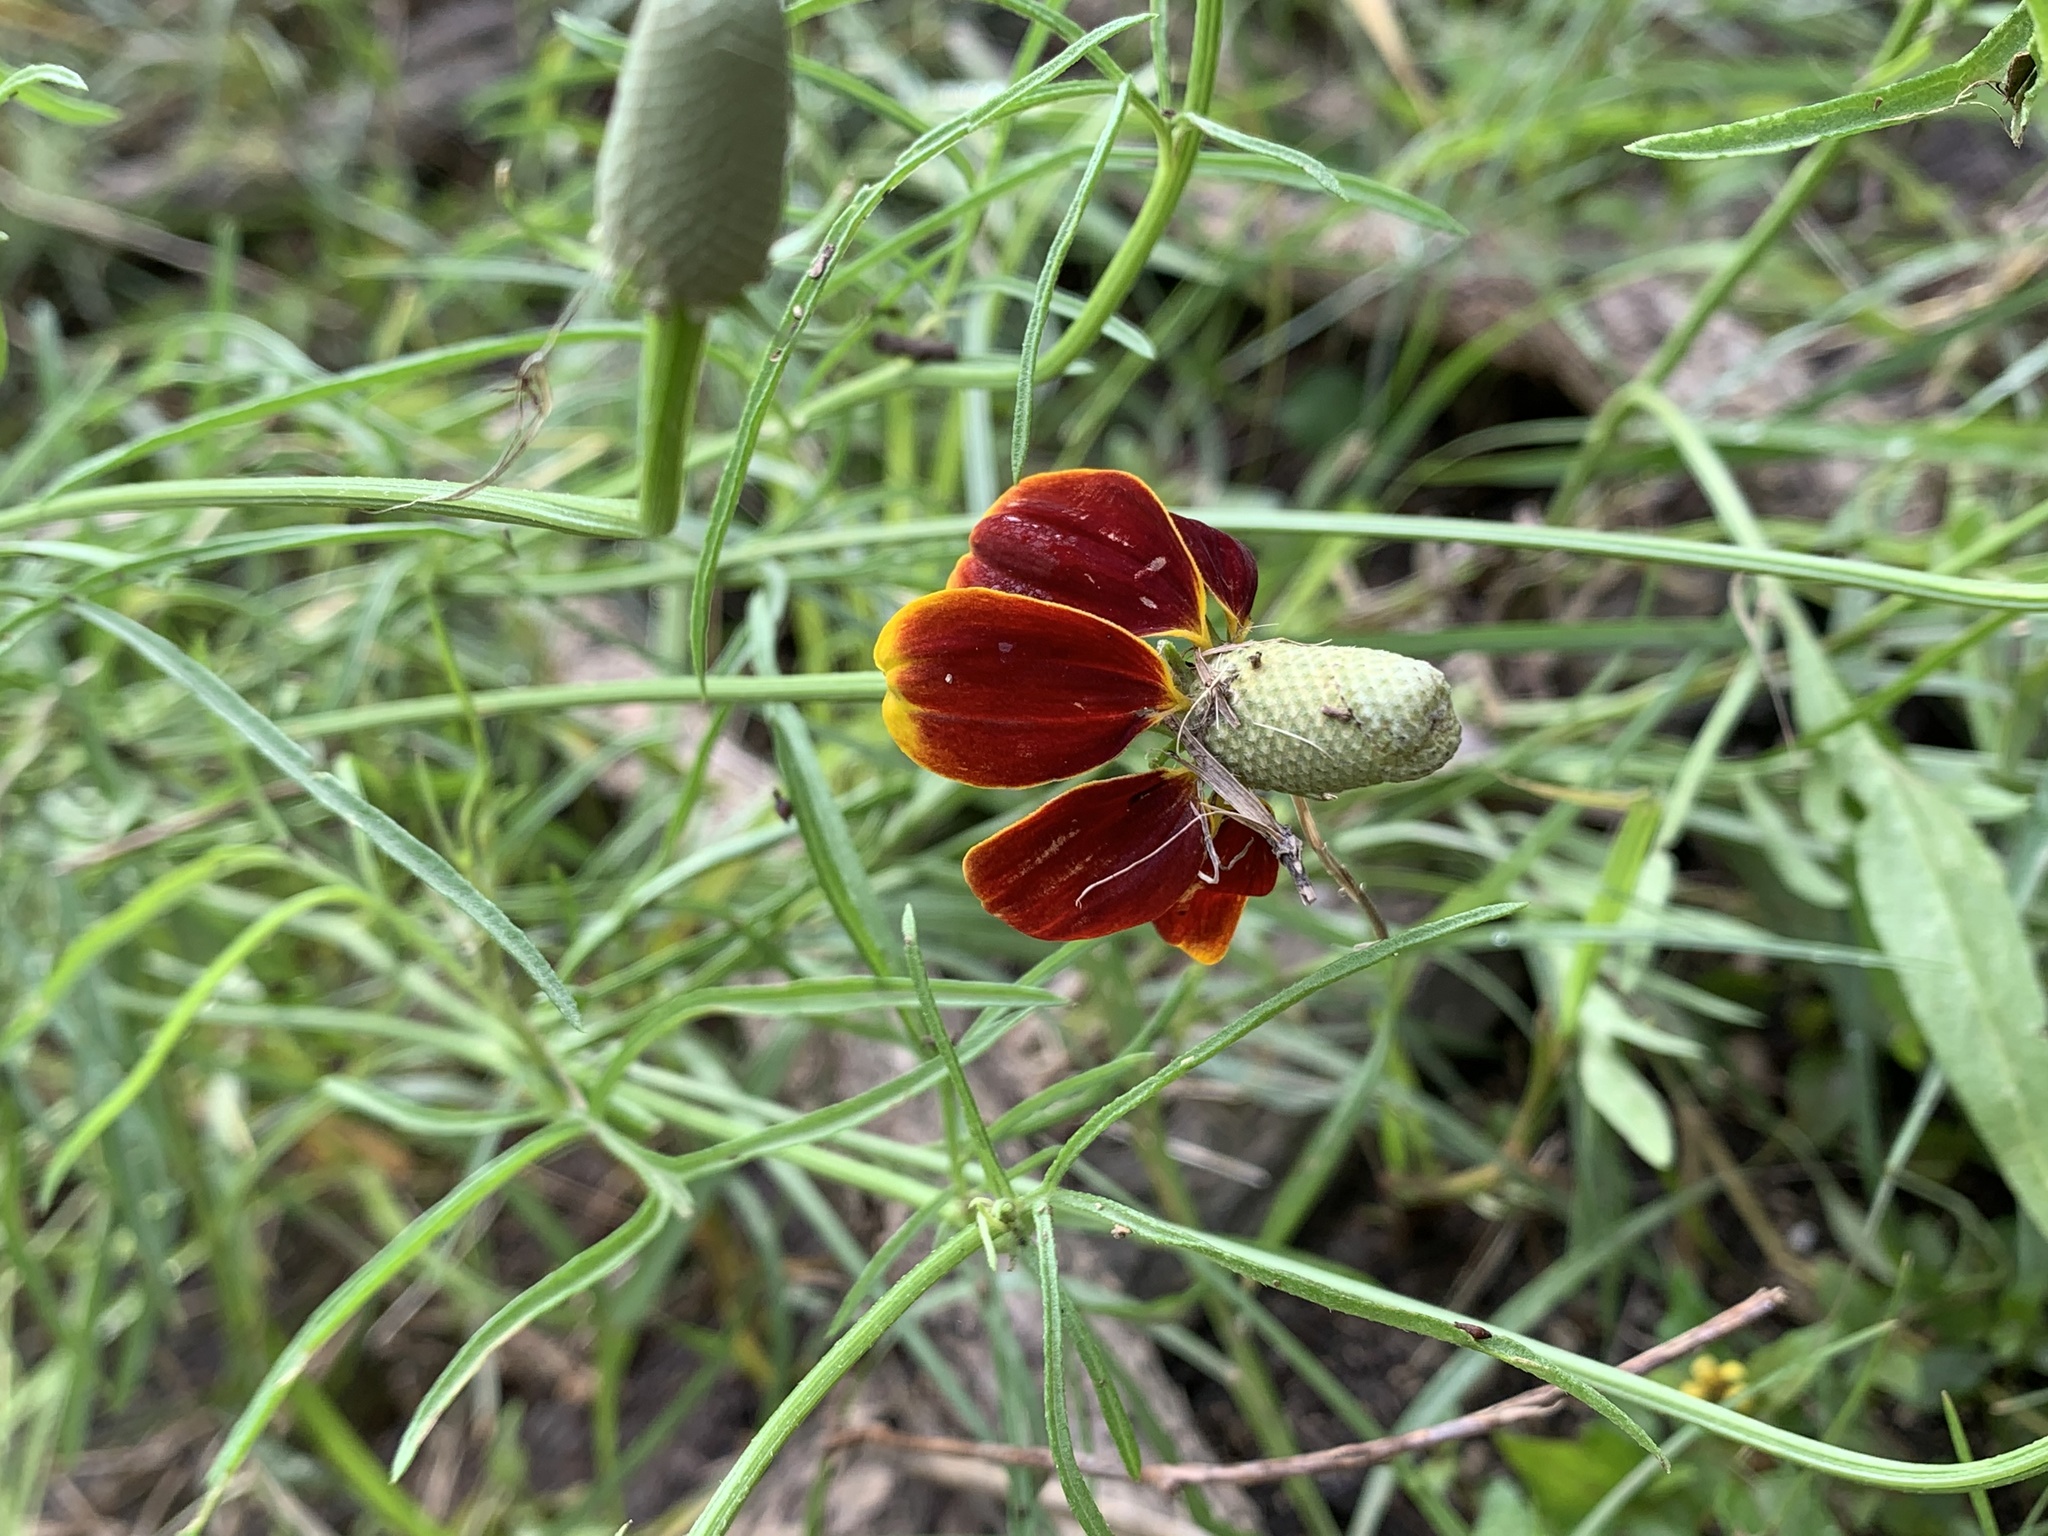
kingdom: Plantae
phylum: Tracheophyta
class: Magnoliopsida
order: Asterales
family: Asteraceae
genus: Ratibida
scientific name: Ratibida columnifera
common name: Prairie coneflower
